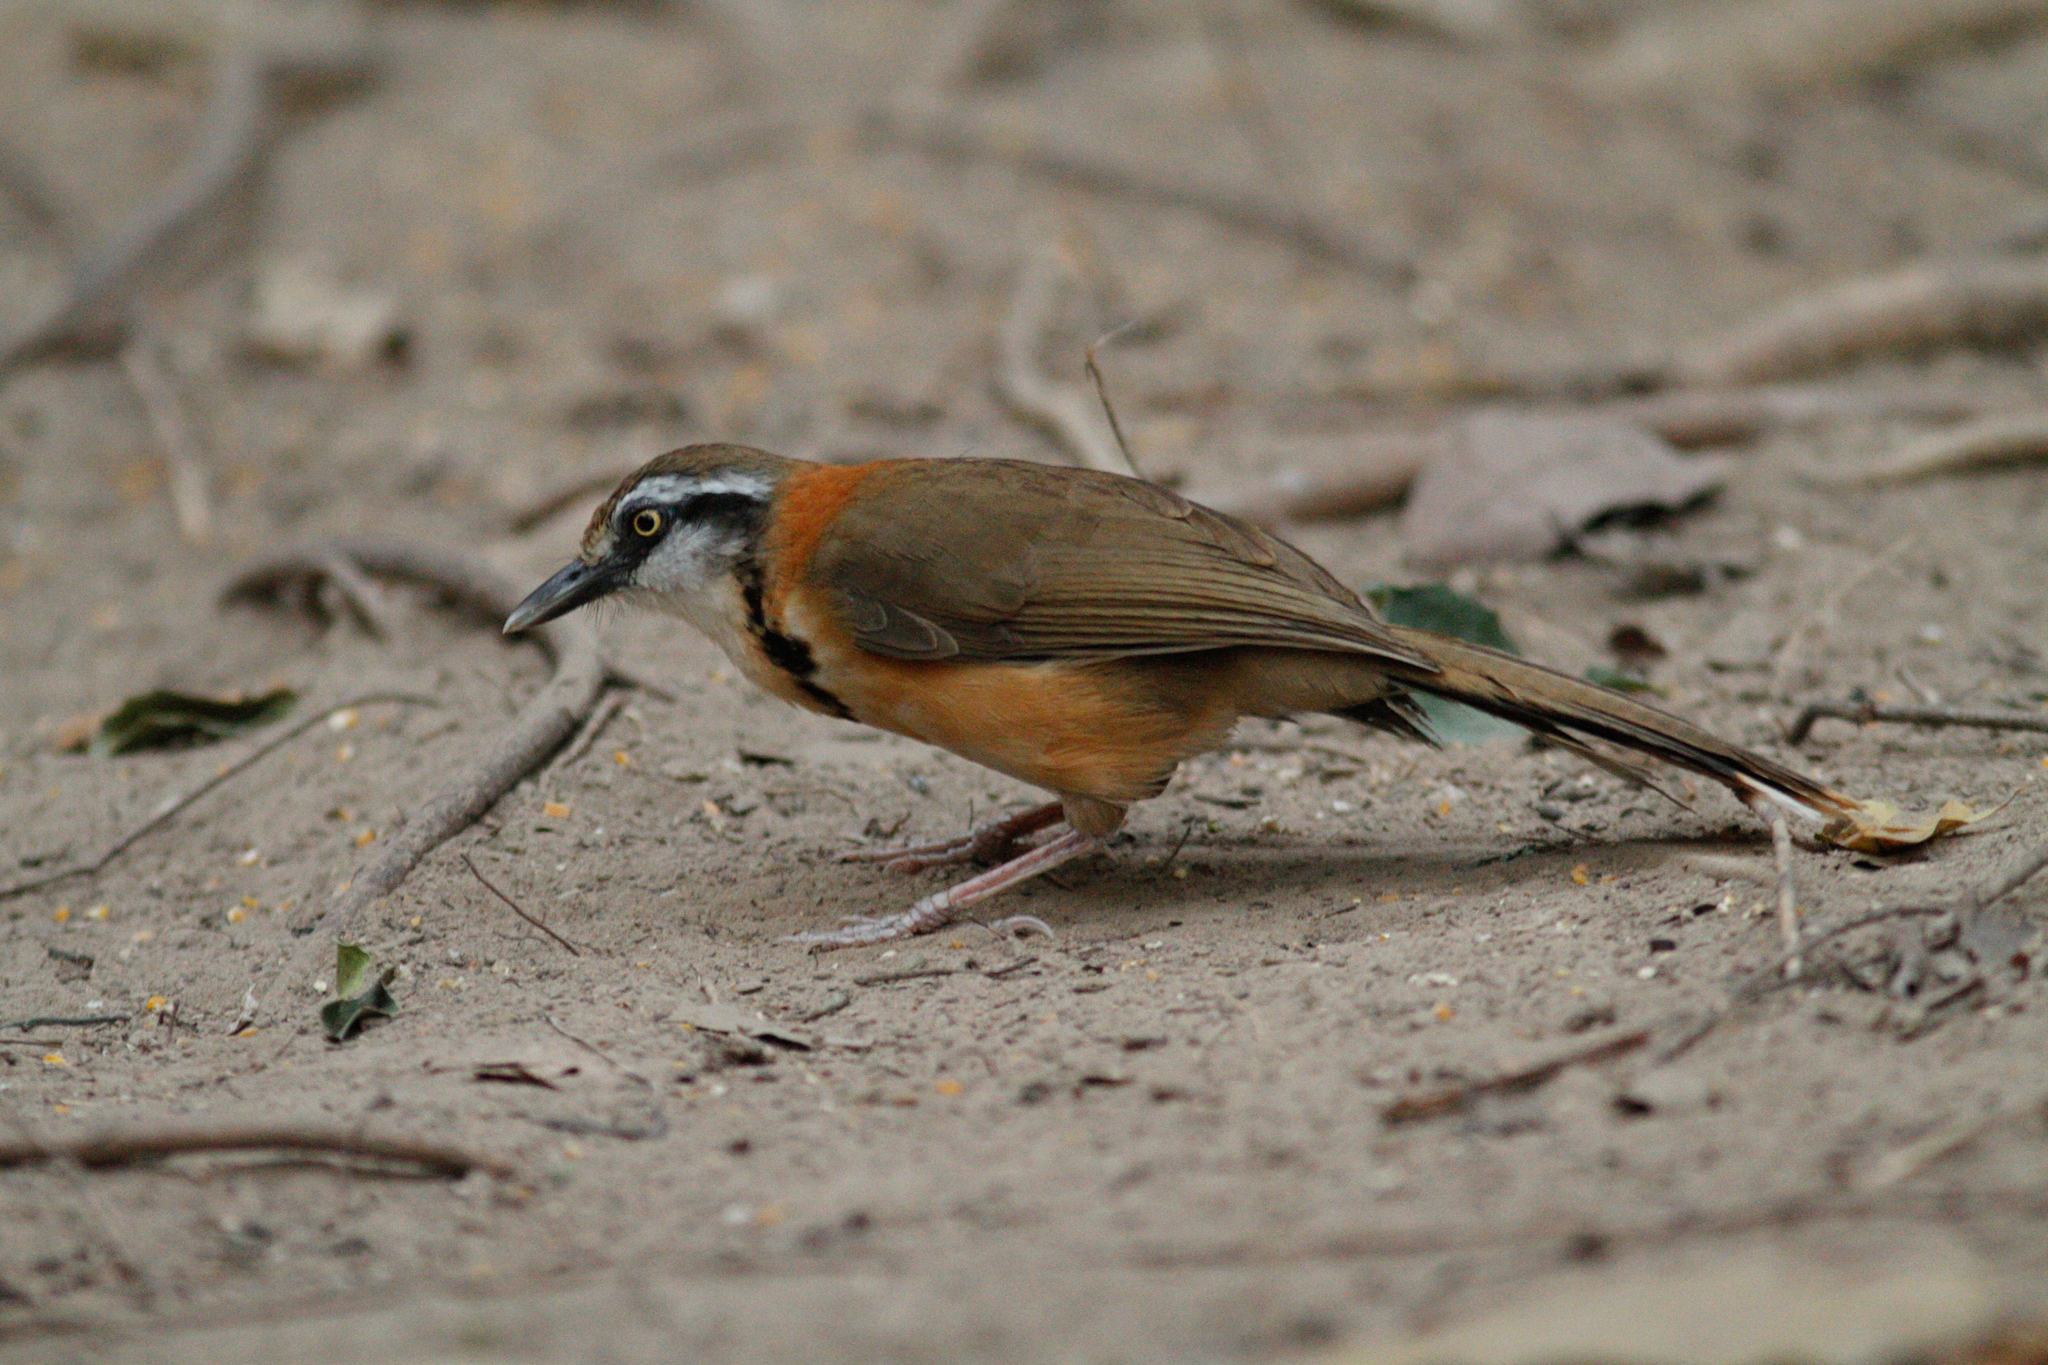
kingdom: Animalia
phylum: Chordata
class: Aves
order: Passeriformes
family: Leiothrichidae
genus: Garrulax
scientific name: Garrulax monileger
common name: Lesser necklaced laughingthrush
